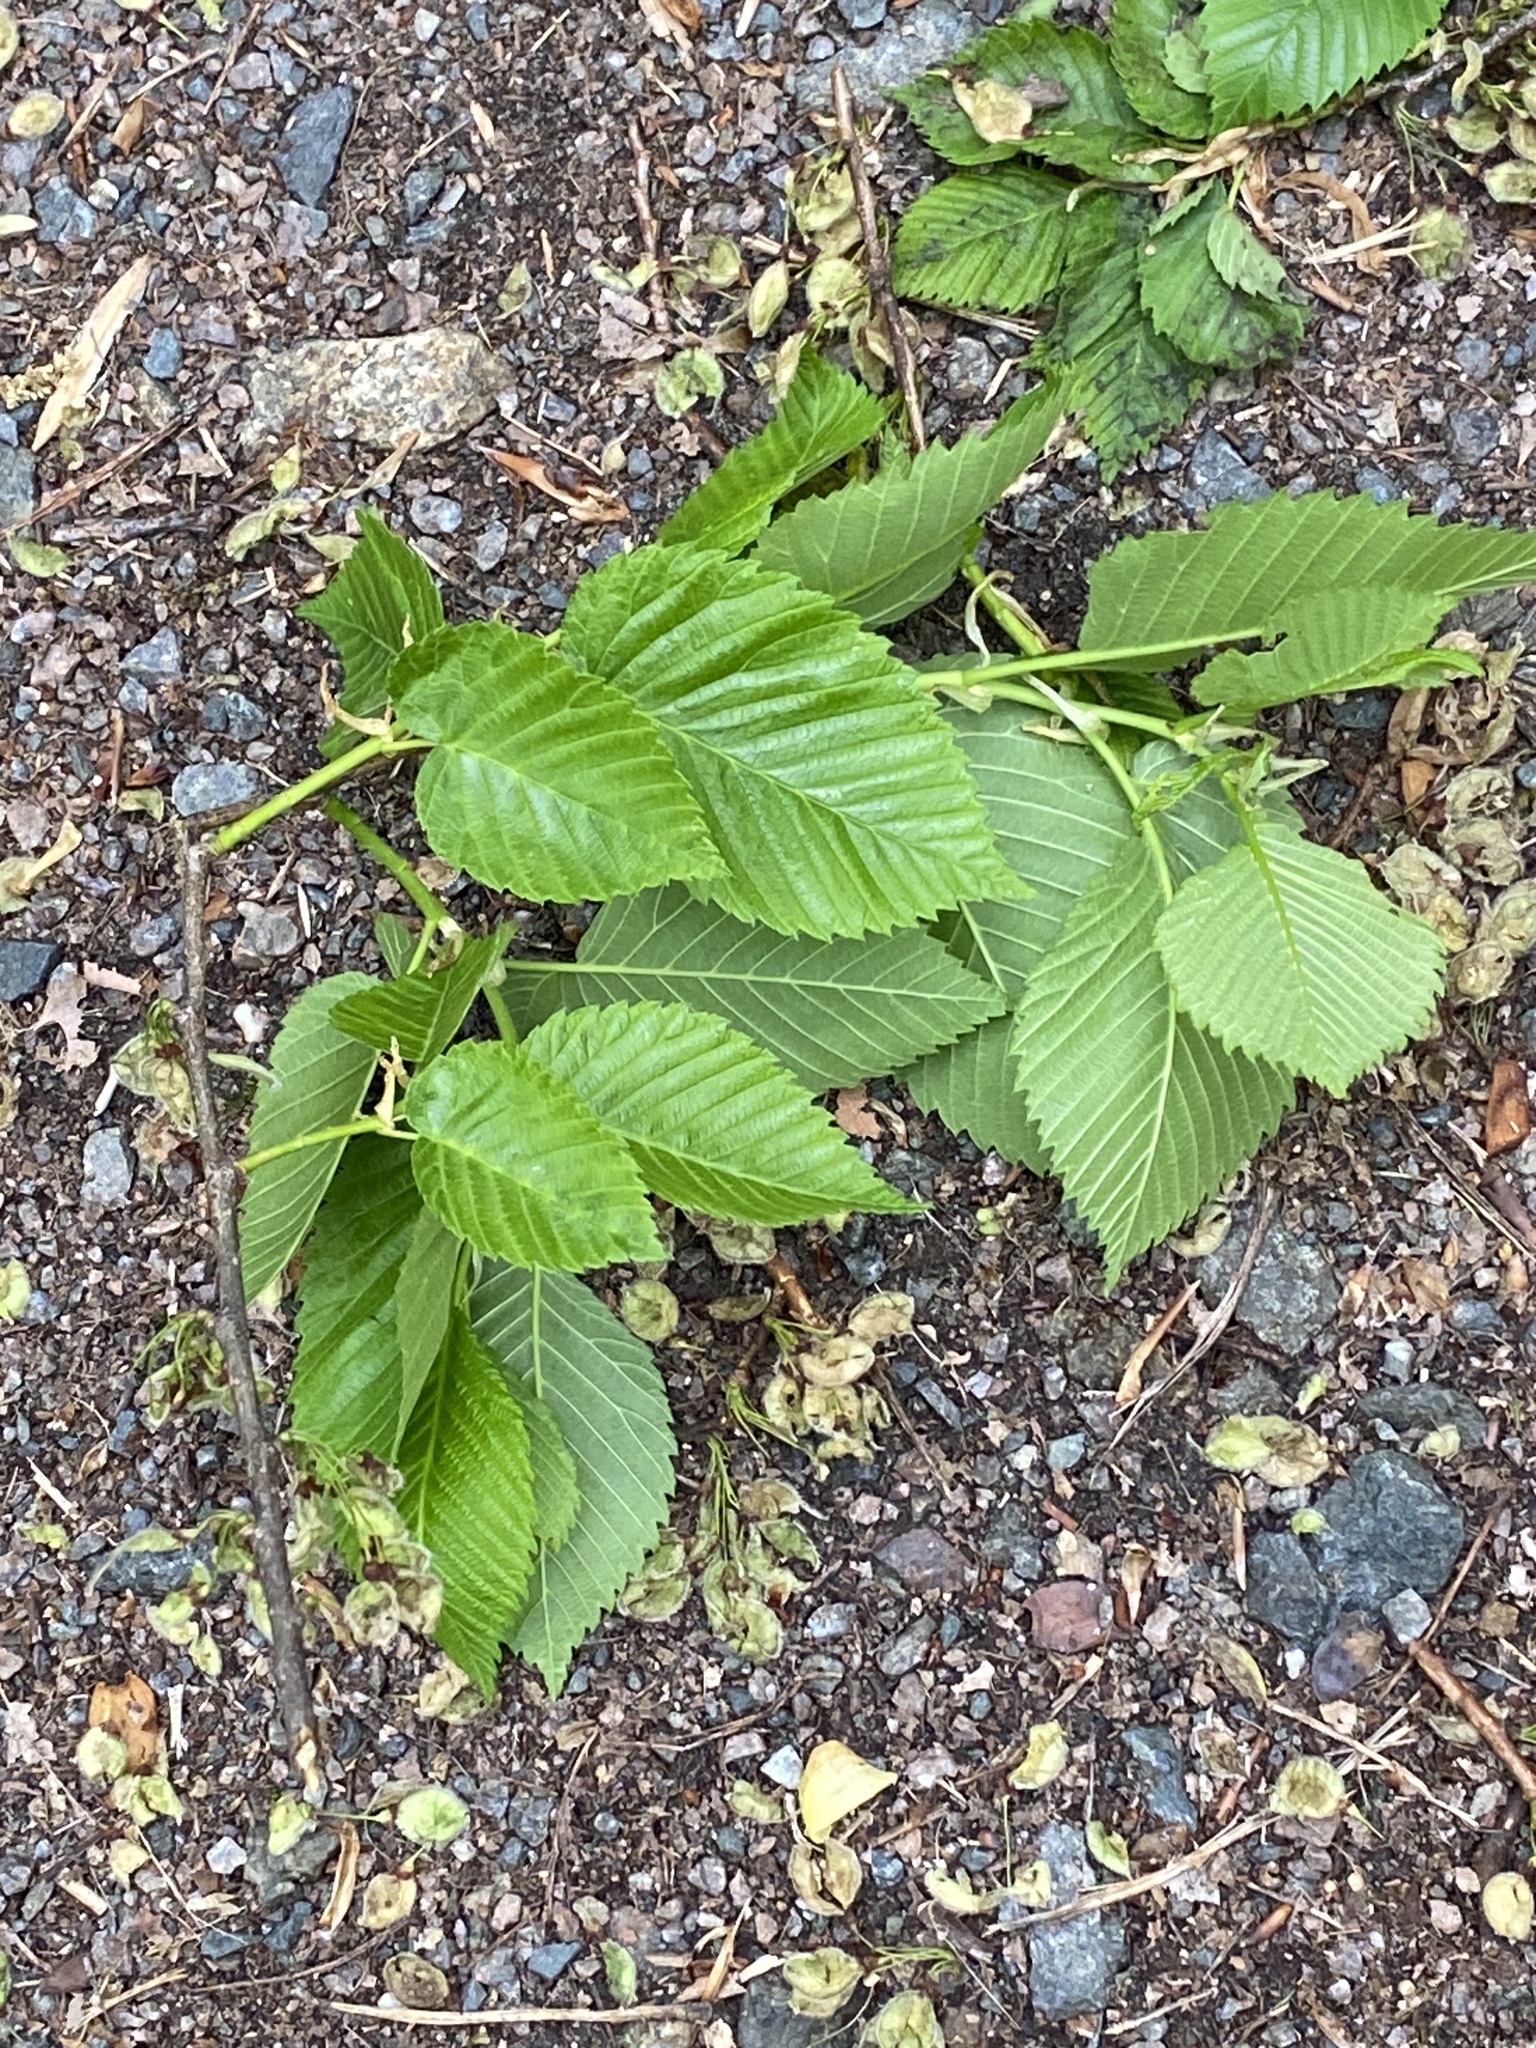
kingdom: Plantae
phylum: Tracheophyta
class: Magnoliopsida
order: Rosales
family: Ulmaceae
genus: Ulmus
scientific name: Ulmus americana
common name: American elm
